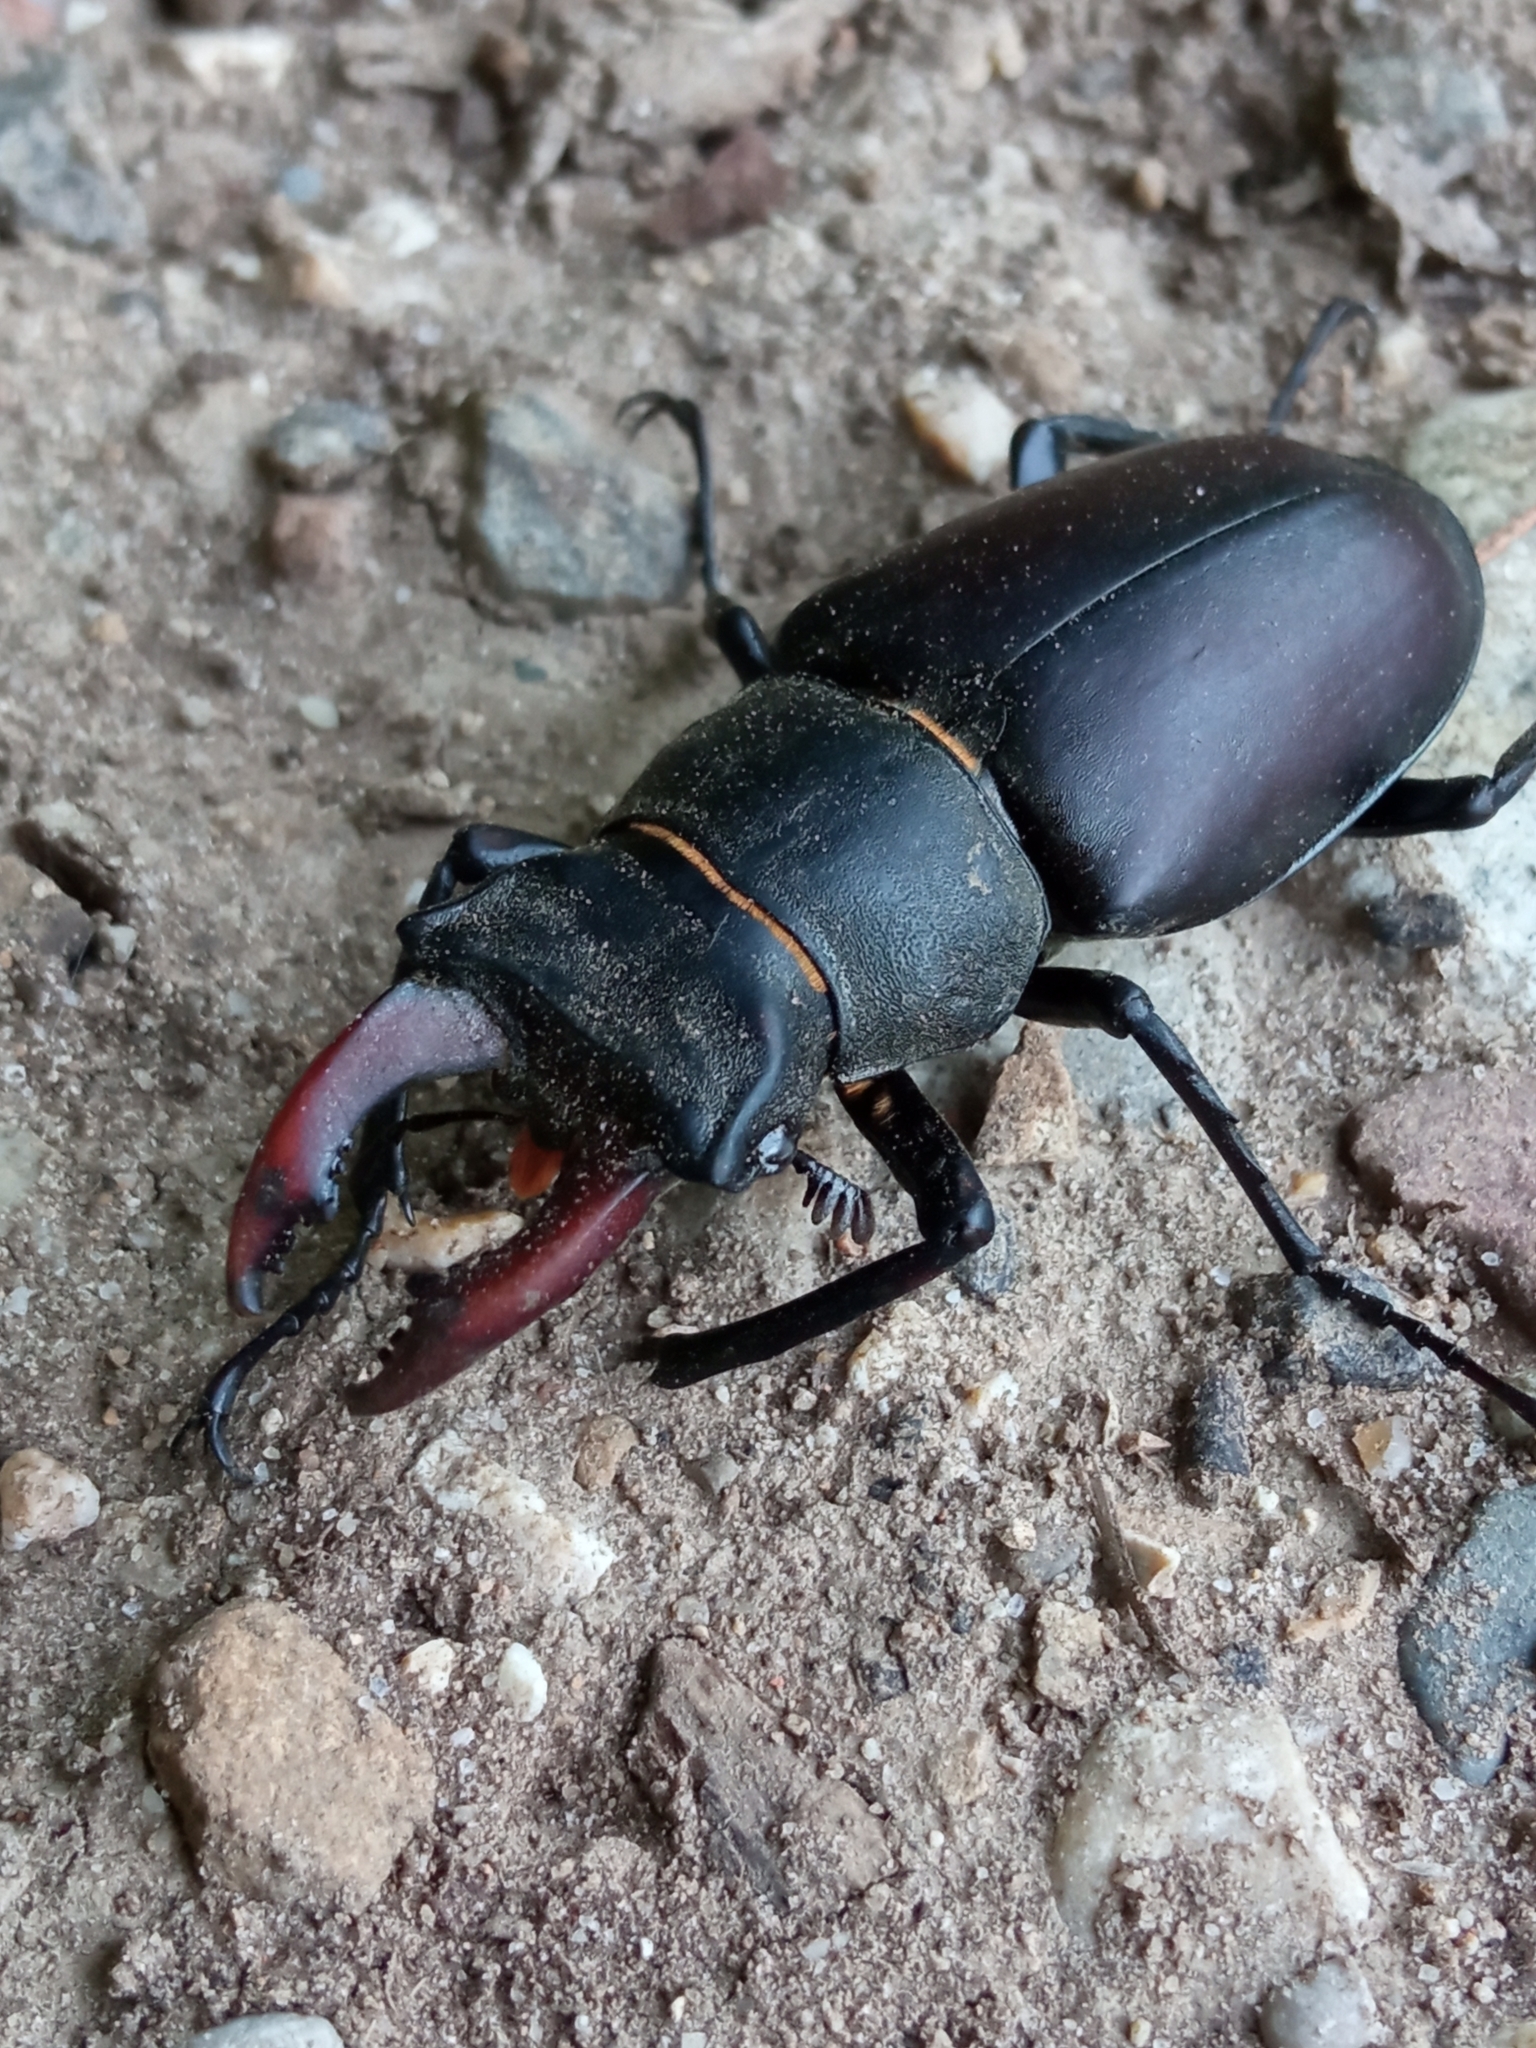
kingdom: Animalia
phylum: Arthropoda
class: Insecta
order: Coleoptera
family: Lucanidae
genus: Lucanus
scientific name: Lucanus cervus
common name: Stag beetle
